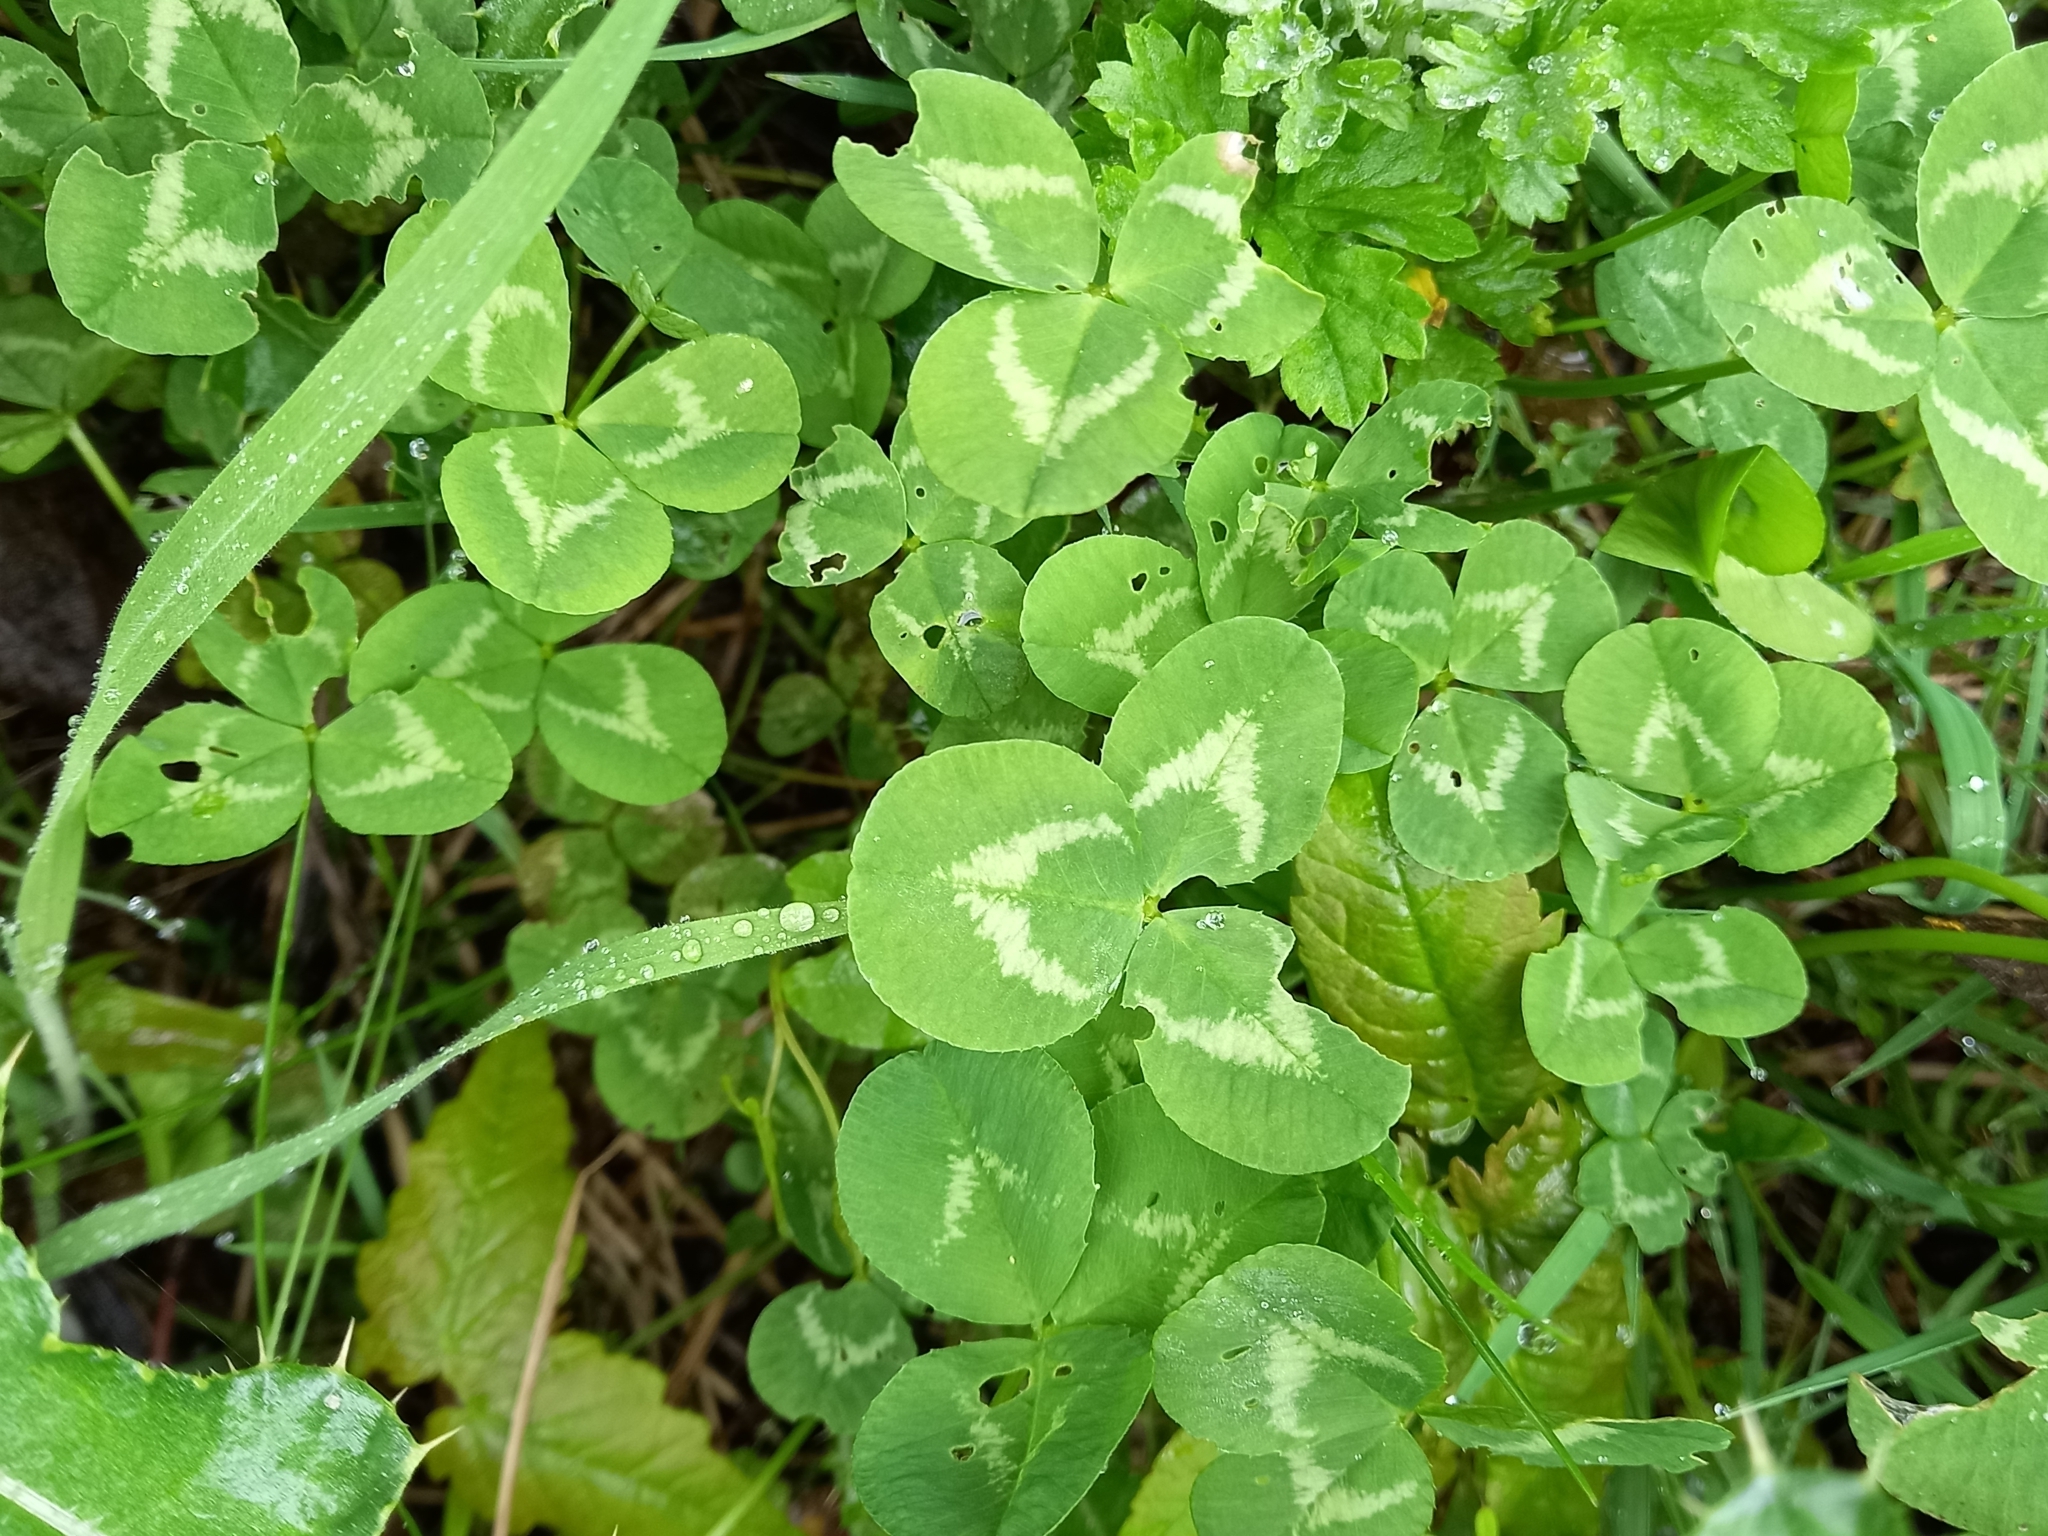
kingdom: Plantae
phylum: Tracheophyta
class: Magnoliopsida
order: Fabales
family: Fabaceae
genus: Trifolium
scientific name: Trifolium repens
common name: White clover
